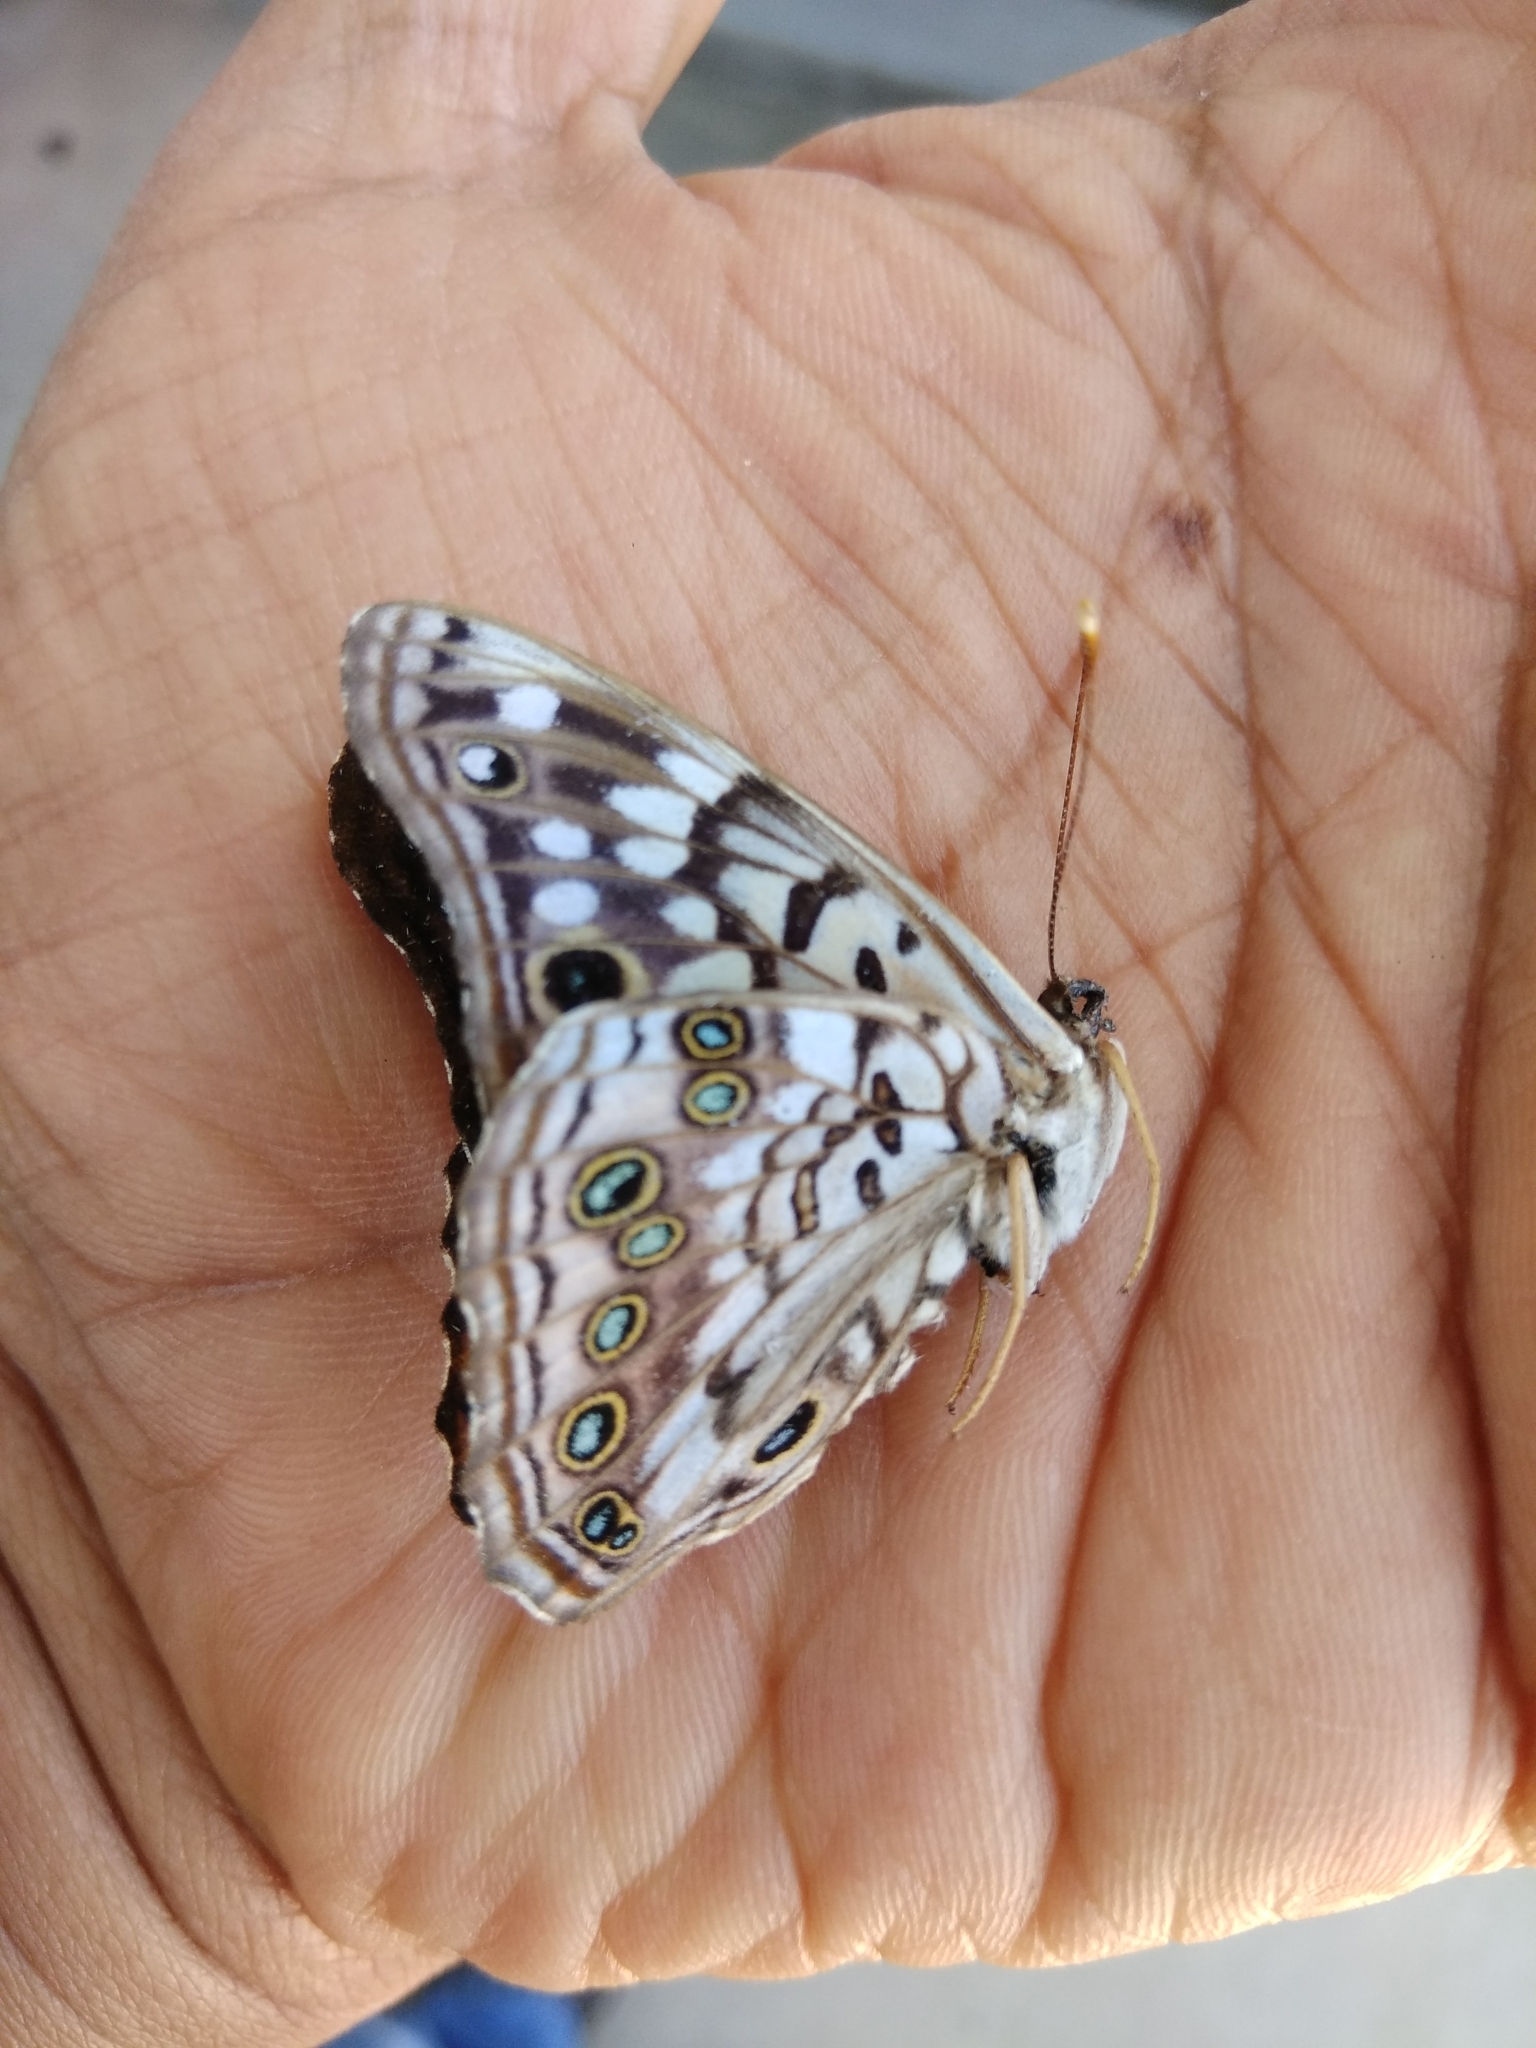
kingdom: Animalia
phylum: Arthropoda
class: Insecta
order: Lepidoptera
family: Nymphalidae
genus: Asterocampa
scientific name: Asterocampa celtis
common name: Hackberry emperor
